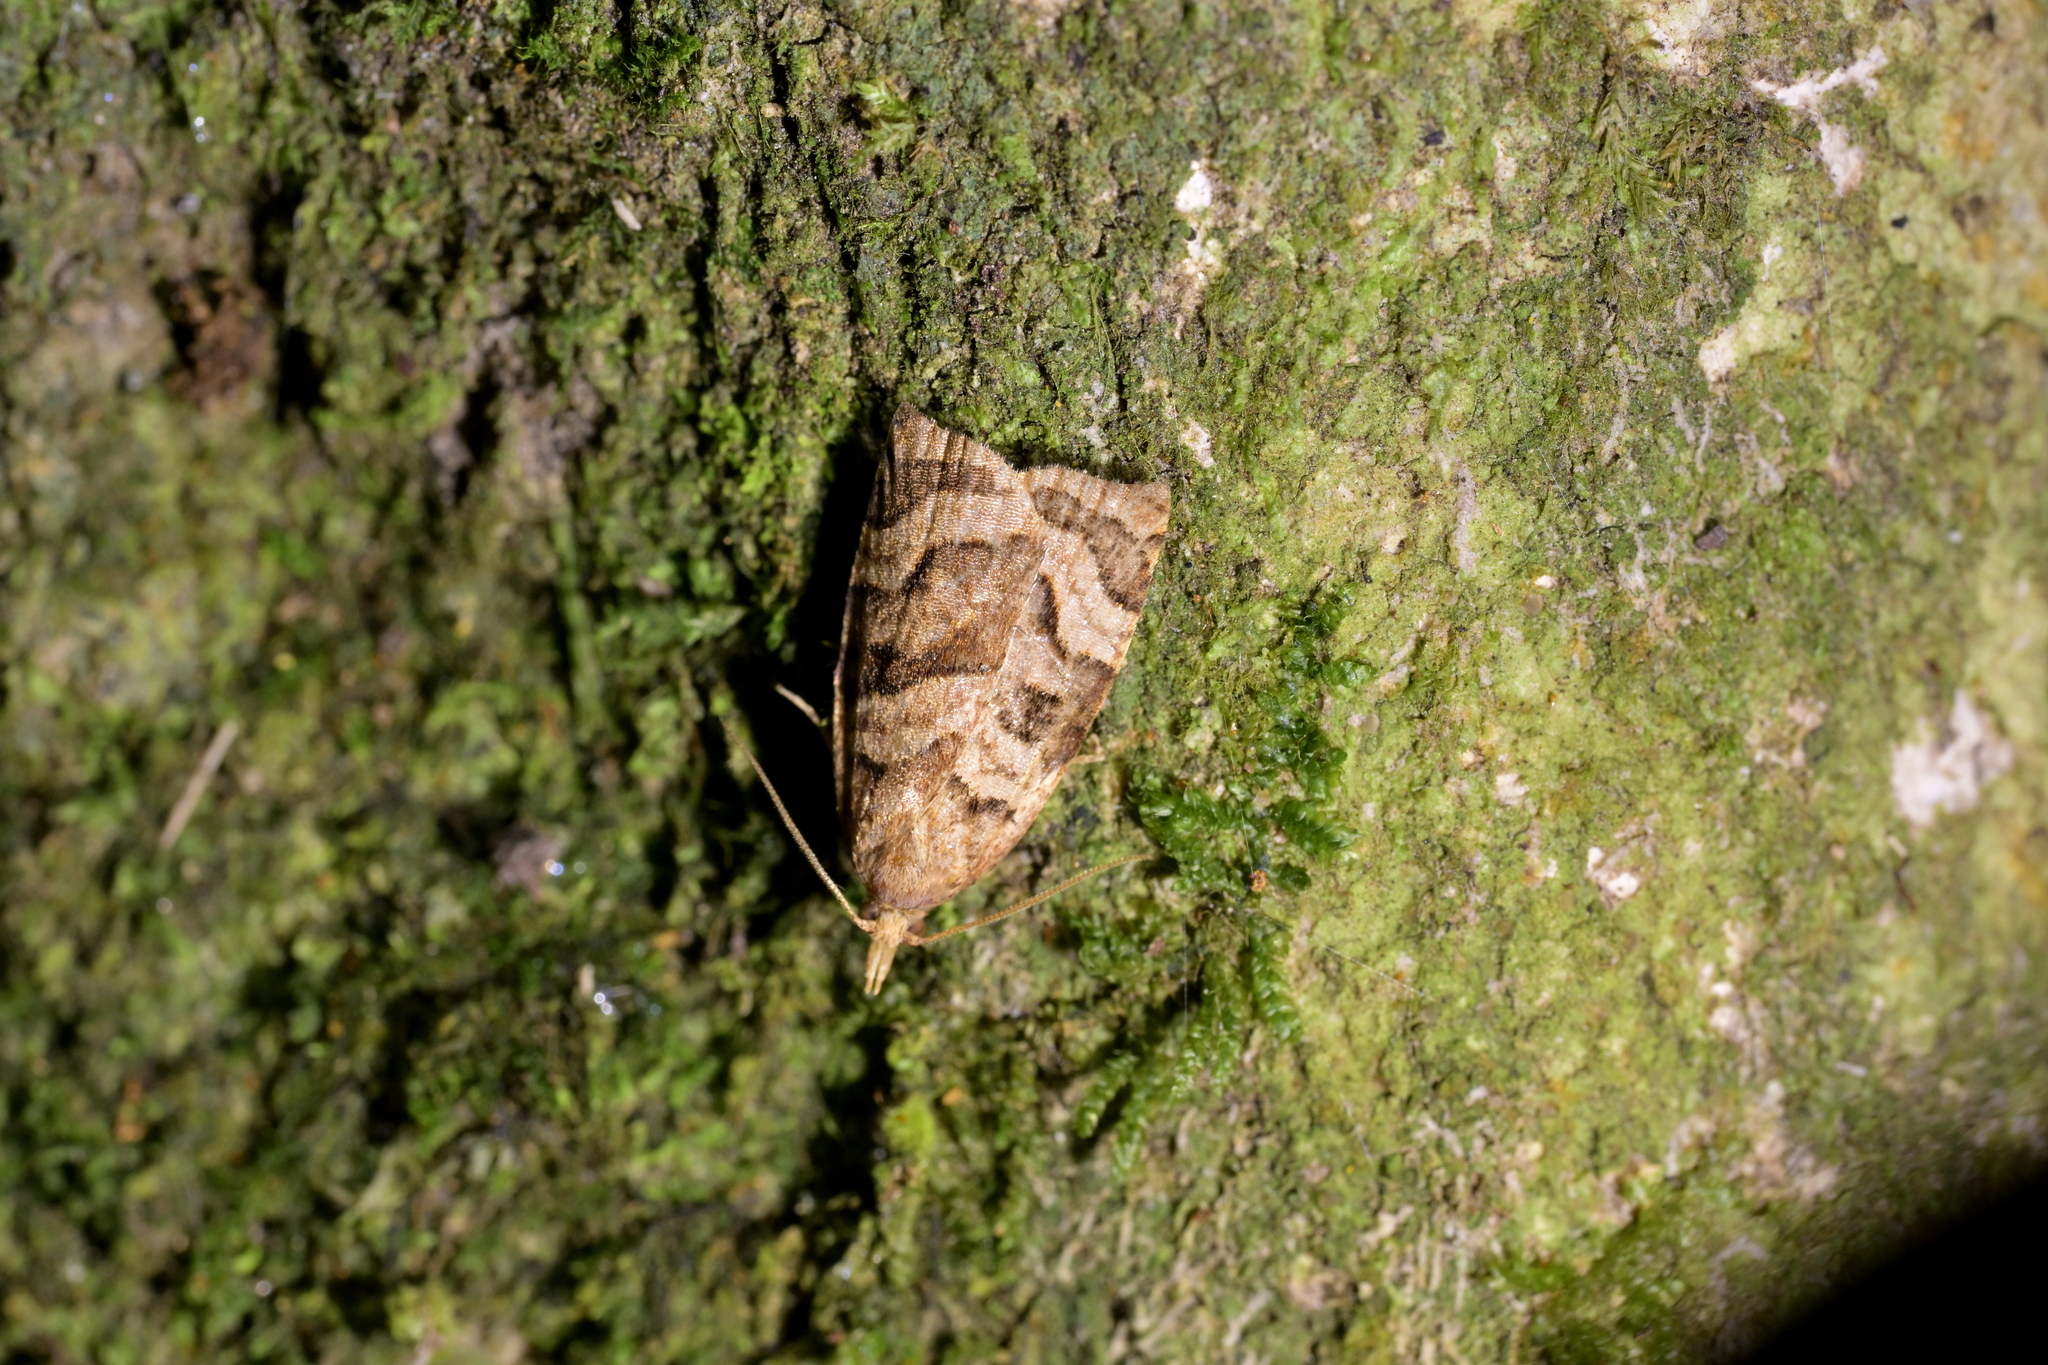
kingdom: Animalia
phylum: Arthropoda
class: Insecta
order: Lepidoptera
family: Tortricidae
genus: Apoctena
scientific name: Apoctena tigris
